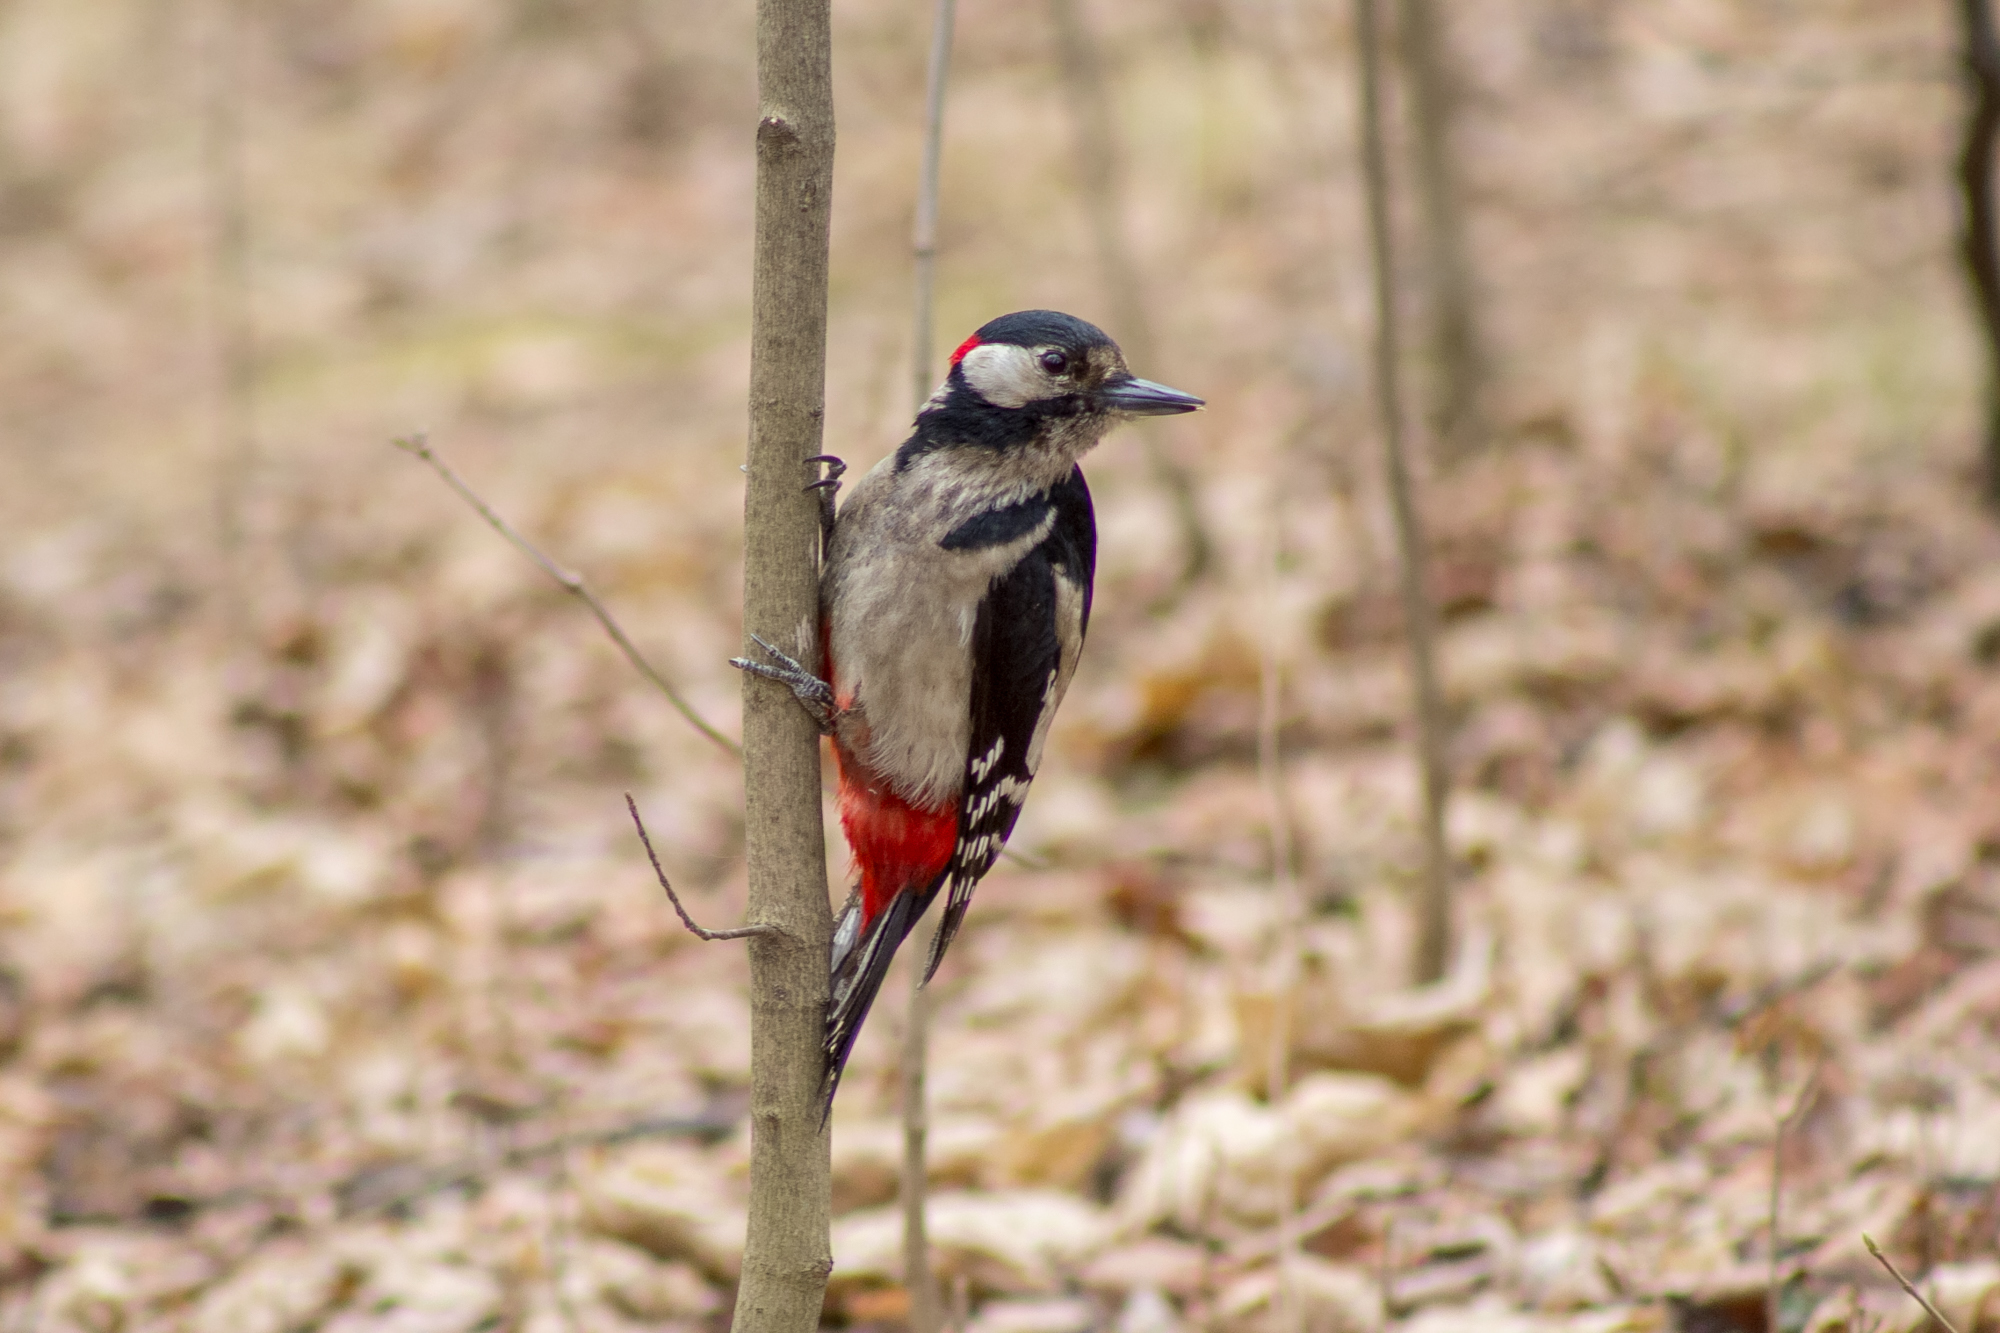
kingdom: Animalia
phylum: Chordata
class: Aves
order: Piciformes
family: Picidae
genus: Dendrocopos
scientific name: Dendrocopos major
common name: Great spotted woodpecker
